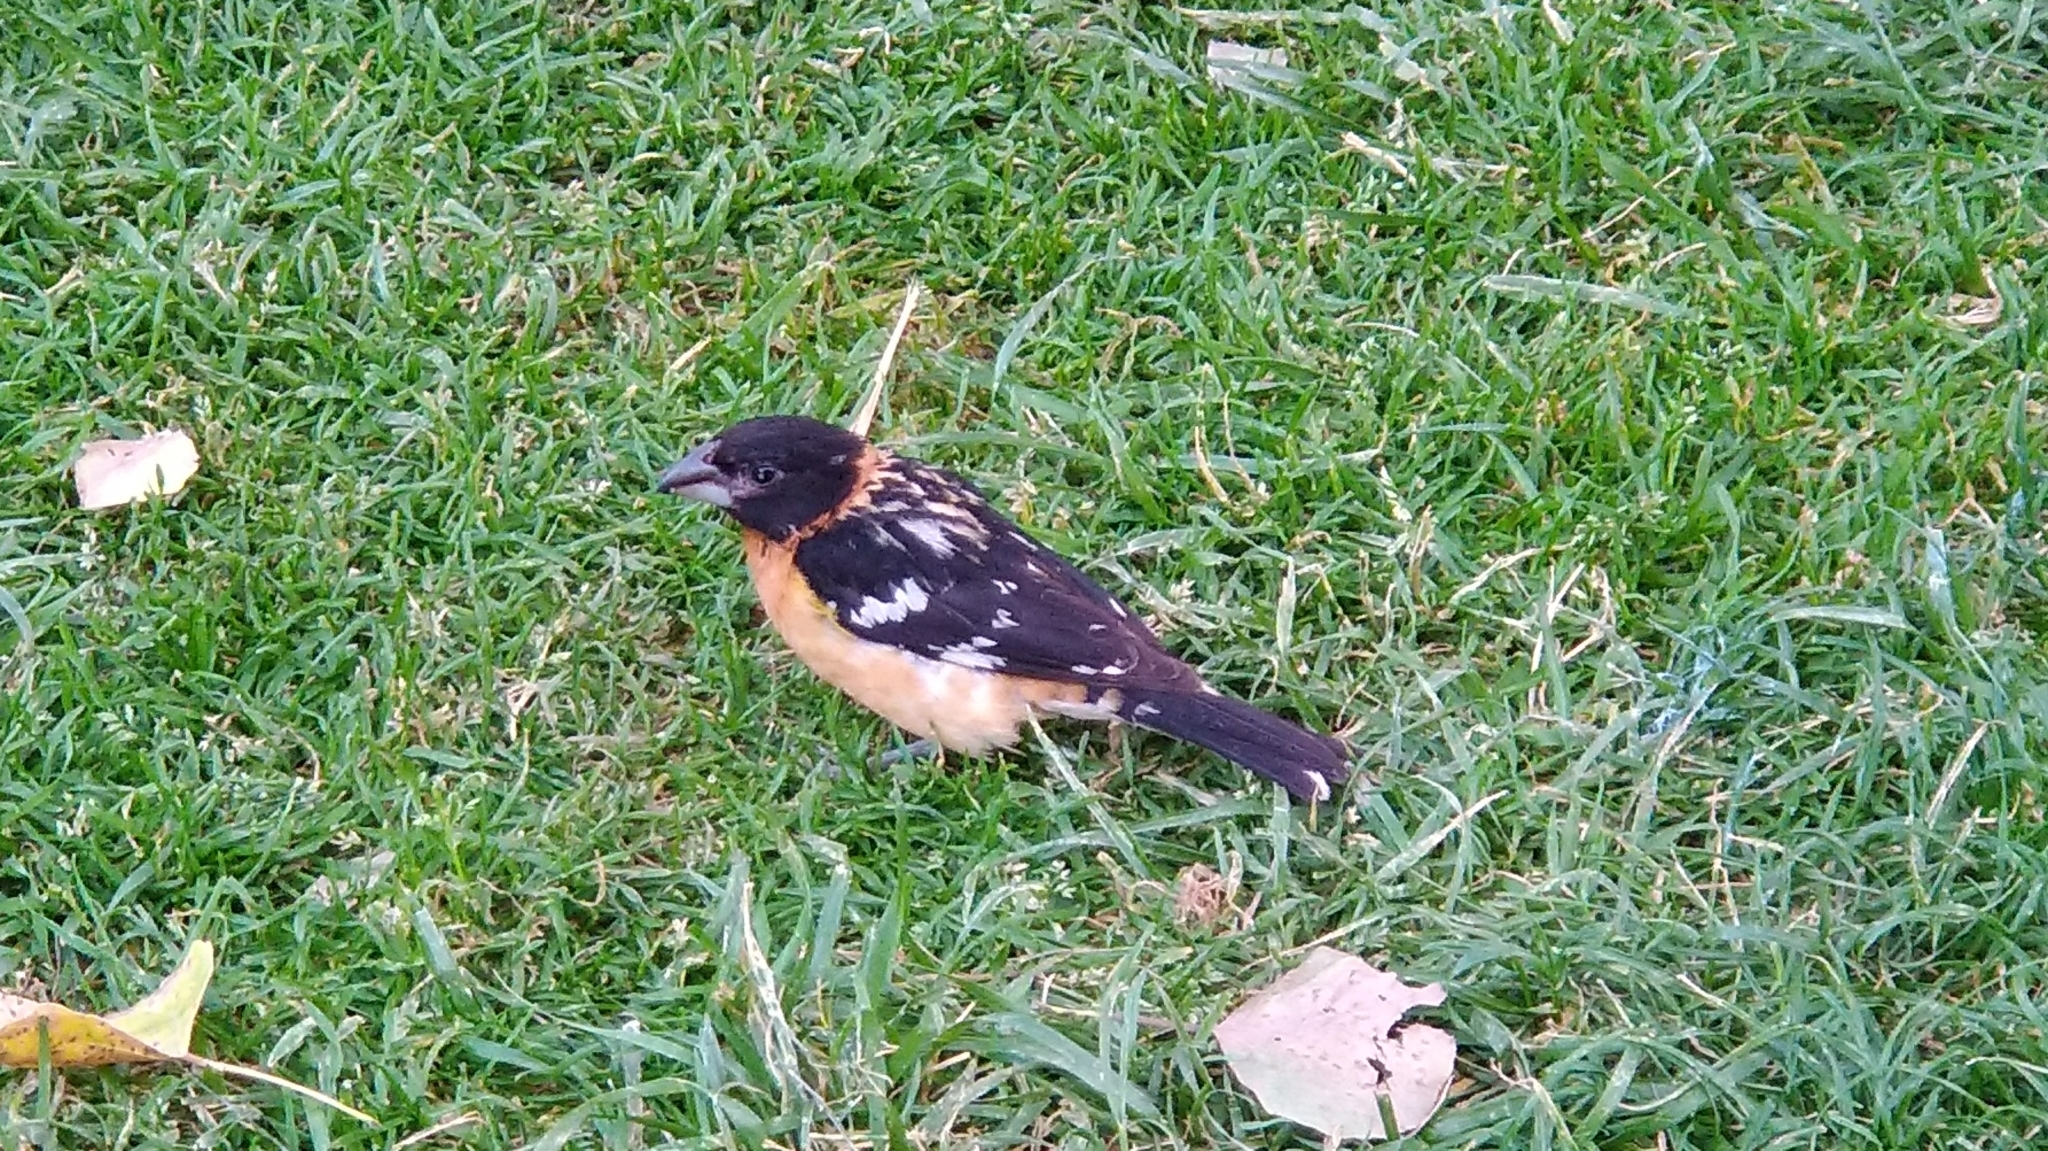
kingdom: Animalia
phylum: Chordata
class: Aves
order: Passeriformes
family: Cardinalidae
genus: Pheucticus
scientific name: Pheucticus melanocephalus
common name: Black-headed grosbeak
